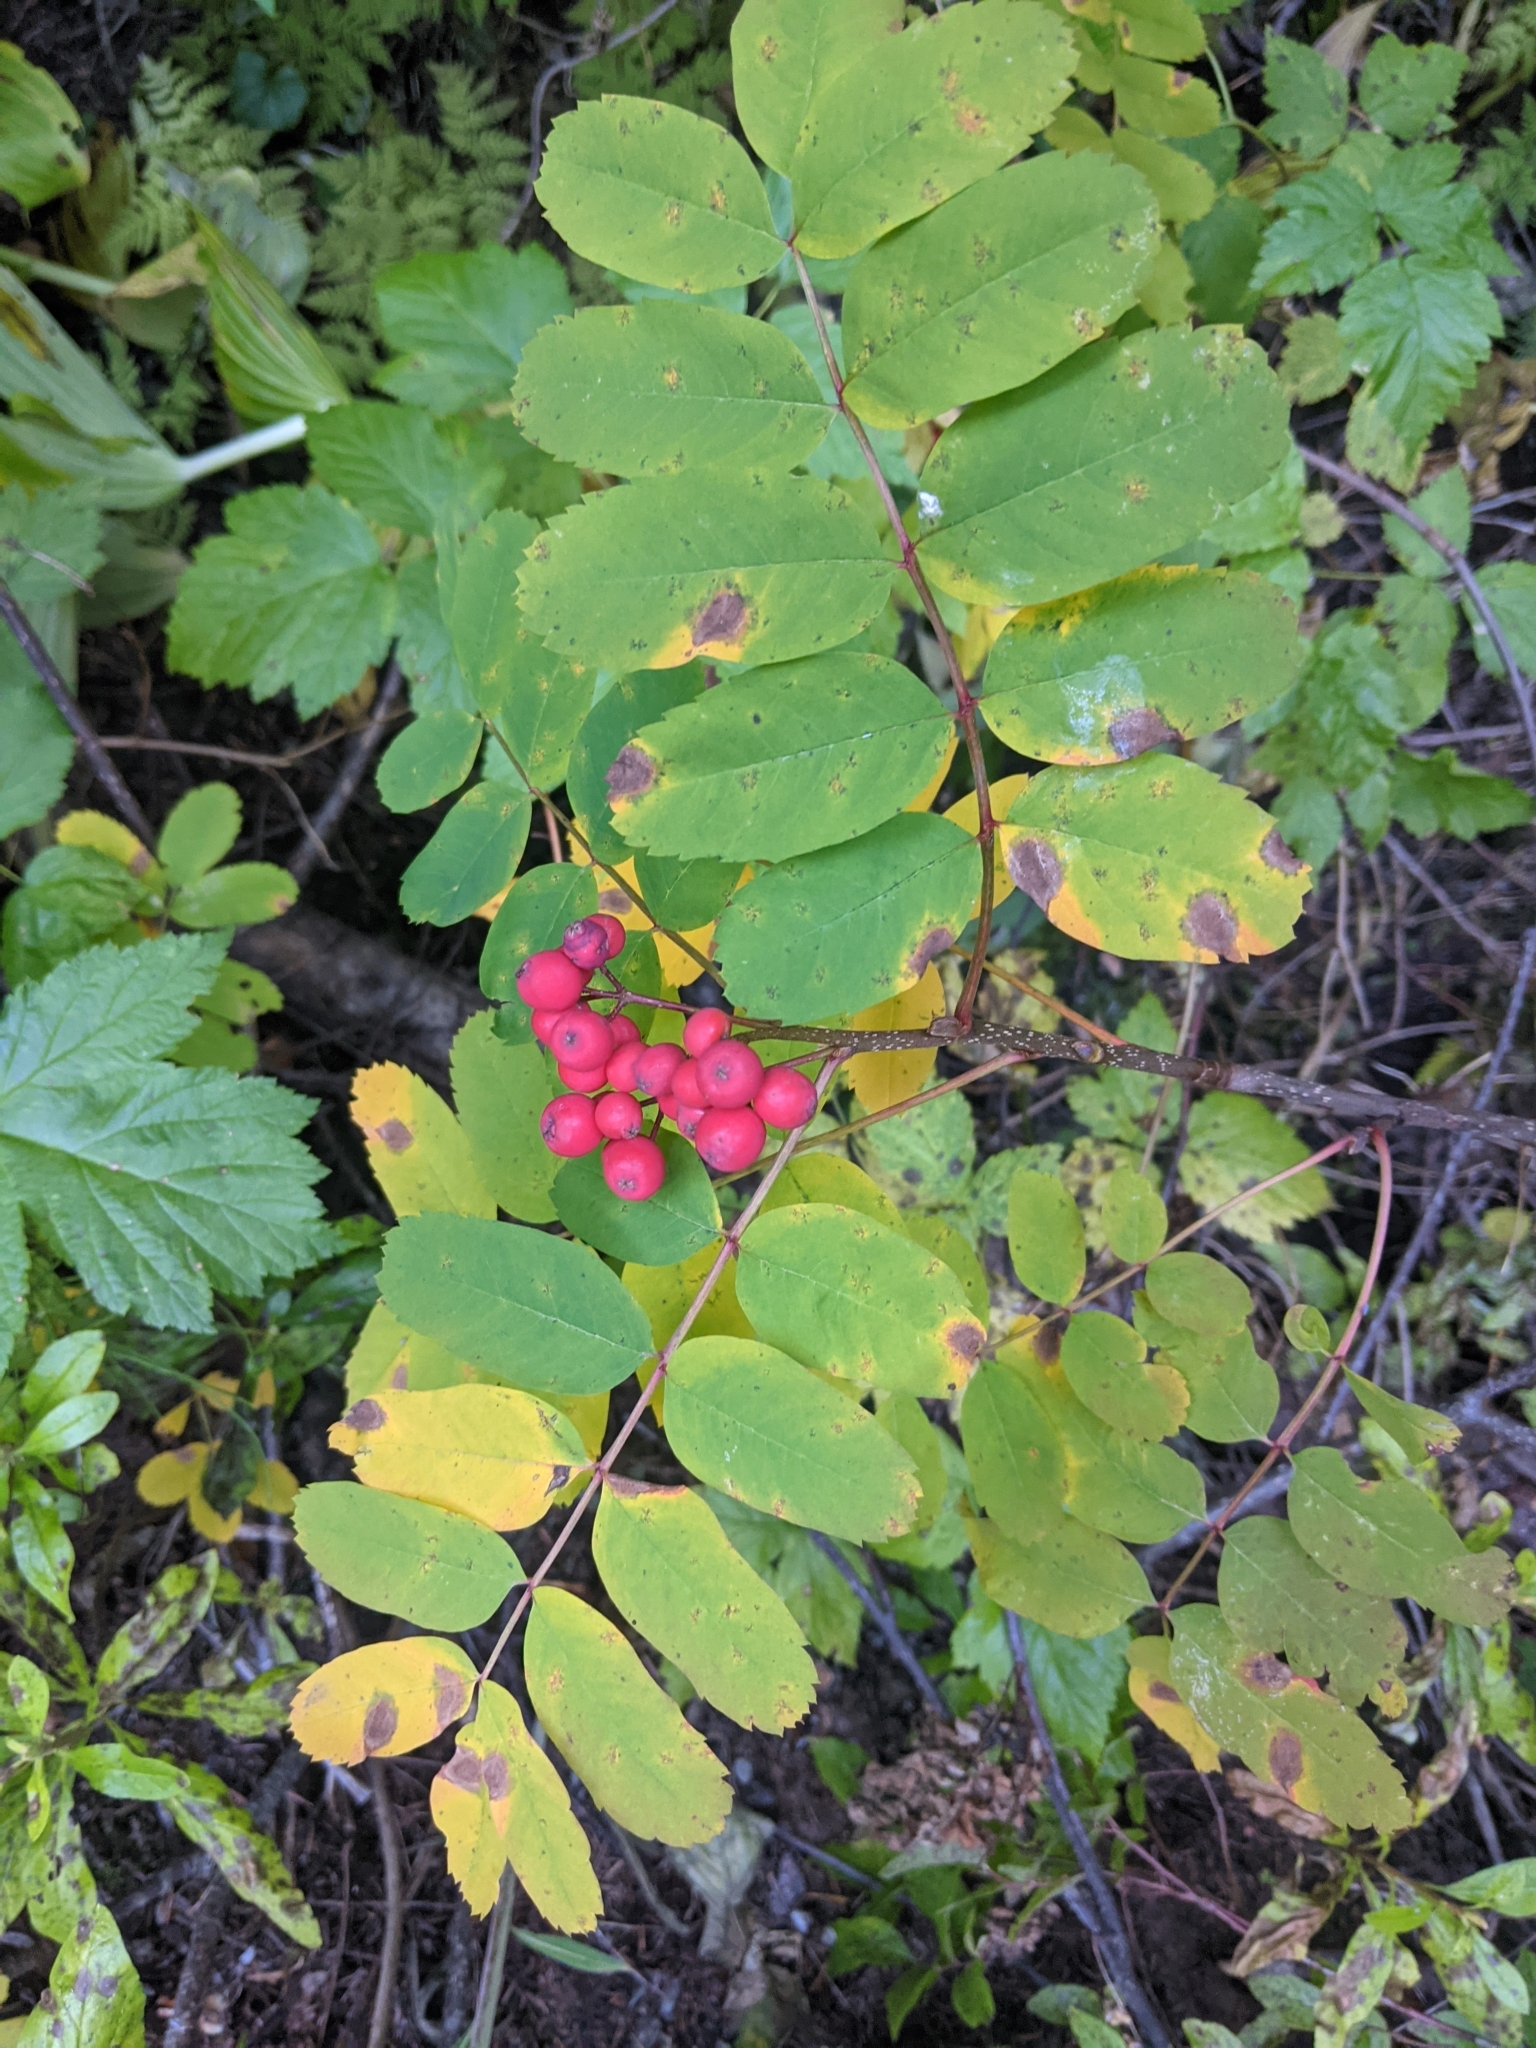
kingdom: Plantae
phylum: Tracheophyta
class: Magnoliopsida
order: Rosales
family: Rosaceae
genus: Sorbus
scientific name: Sorbus sitchensis
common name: Sitka mountain-ash
